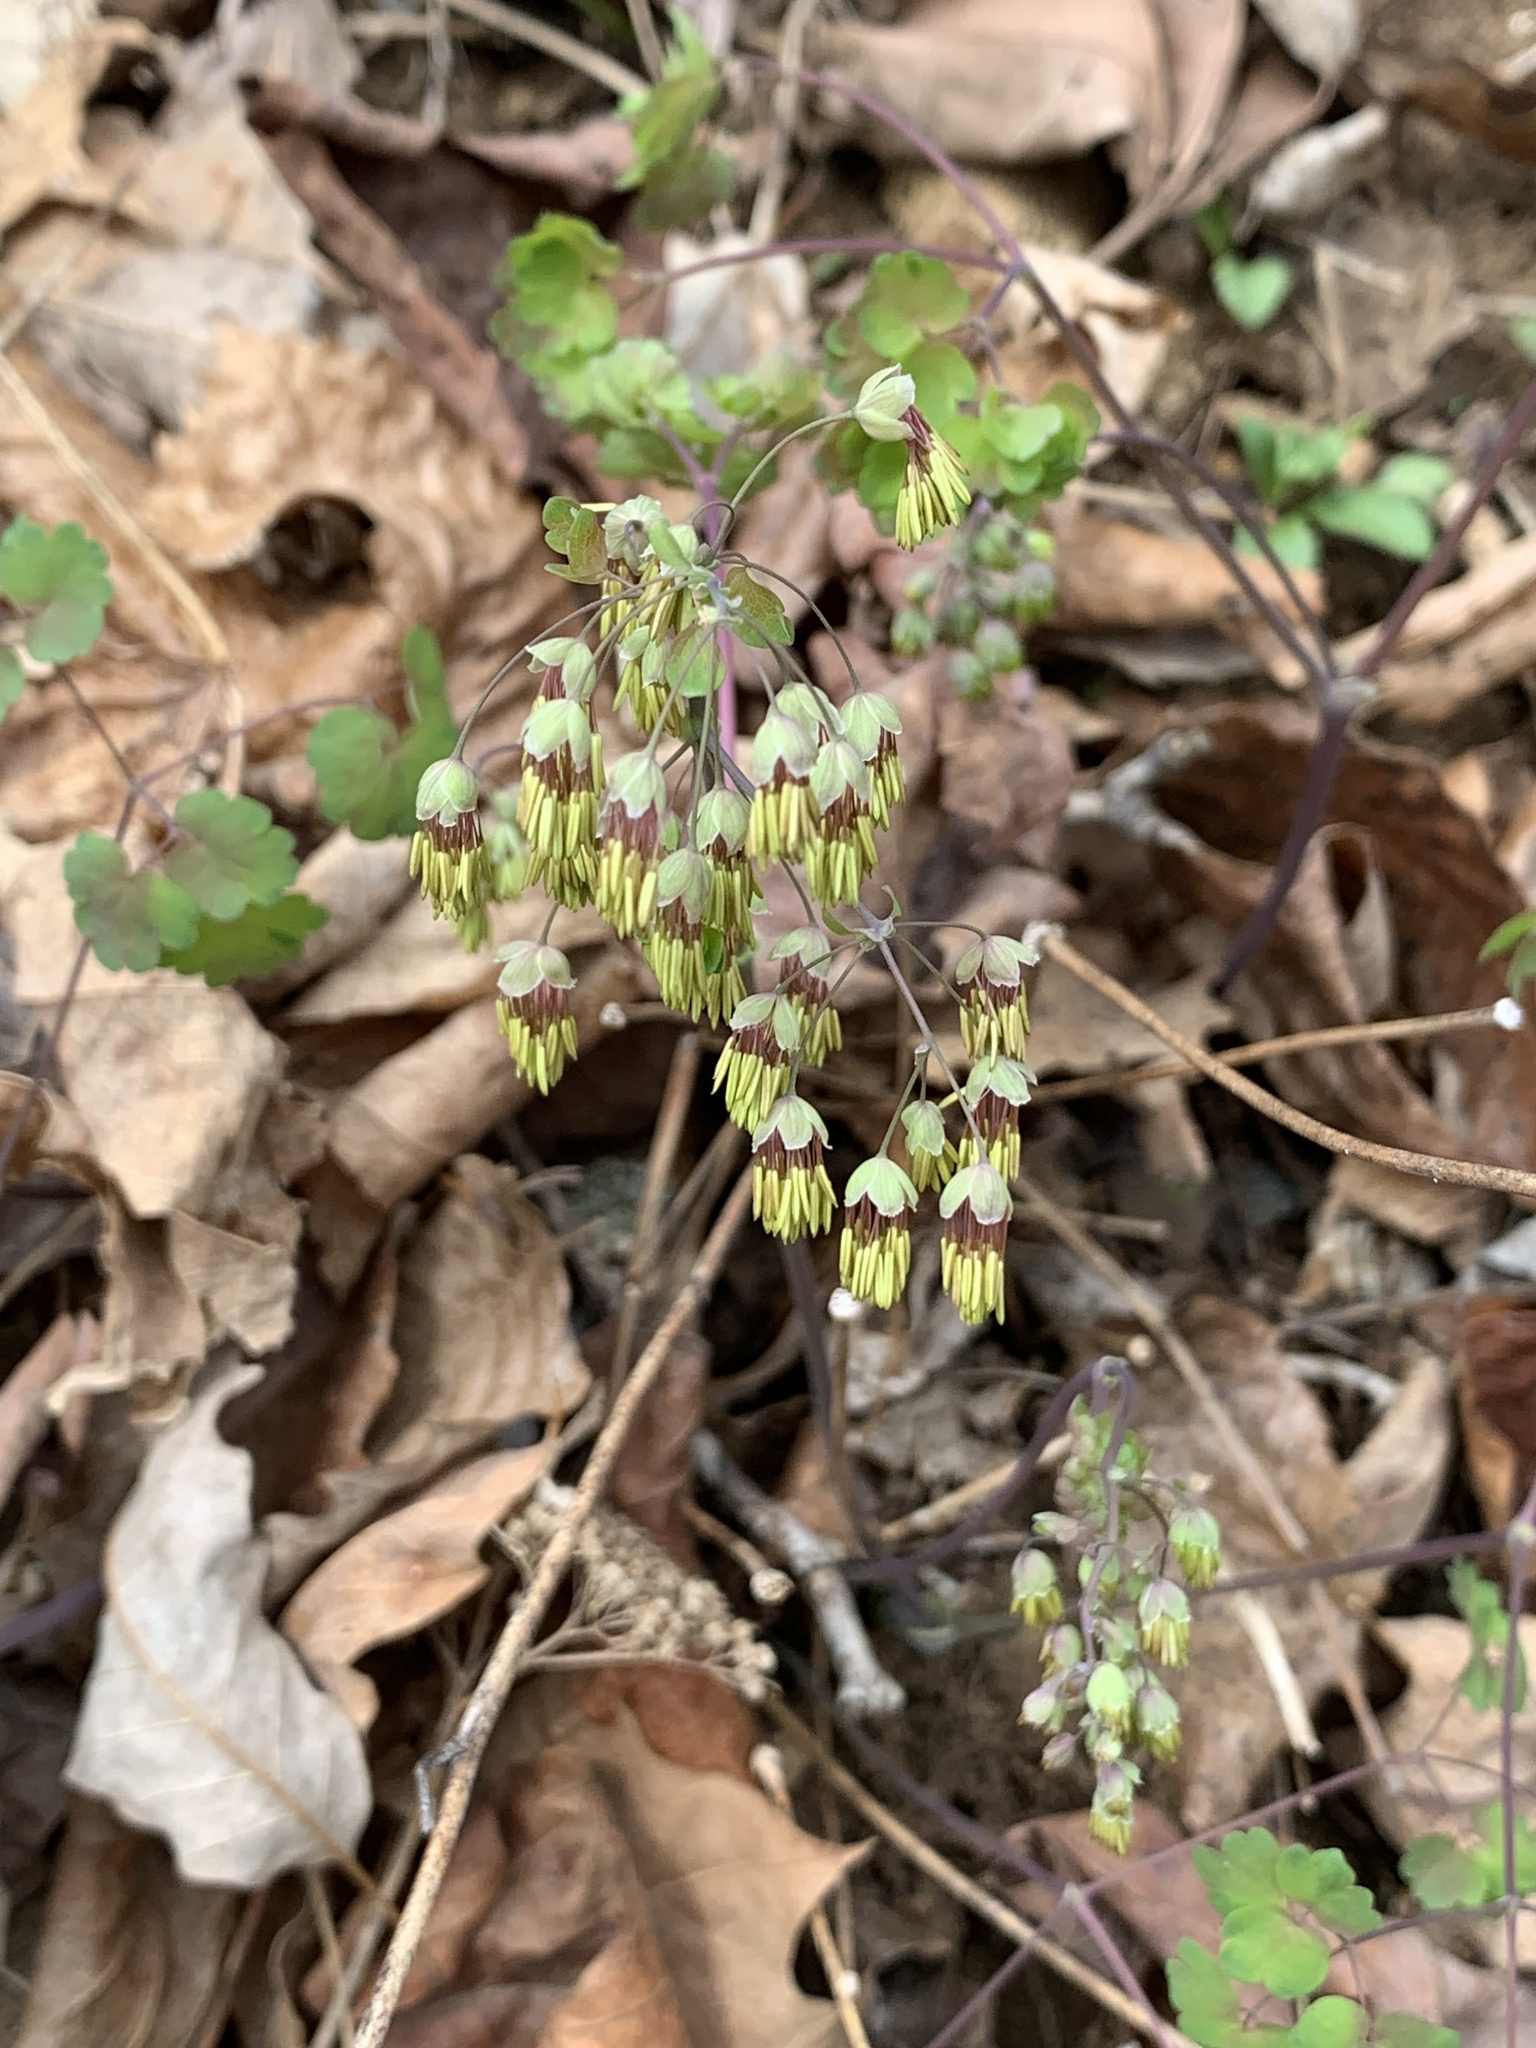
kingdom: Plantae
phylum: Tracheophyta
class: Magnoliopsida
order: Ranunculales
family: Ranunculaceae
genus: Thalictrum
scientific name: Thalictrum dioicum
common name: Early meadow-rue
